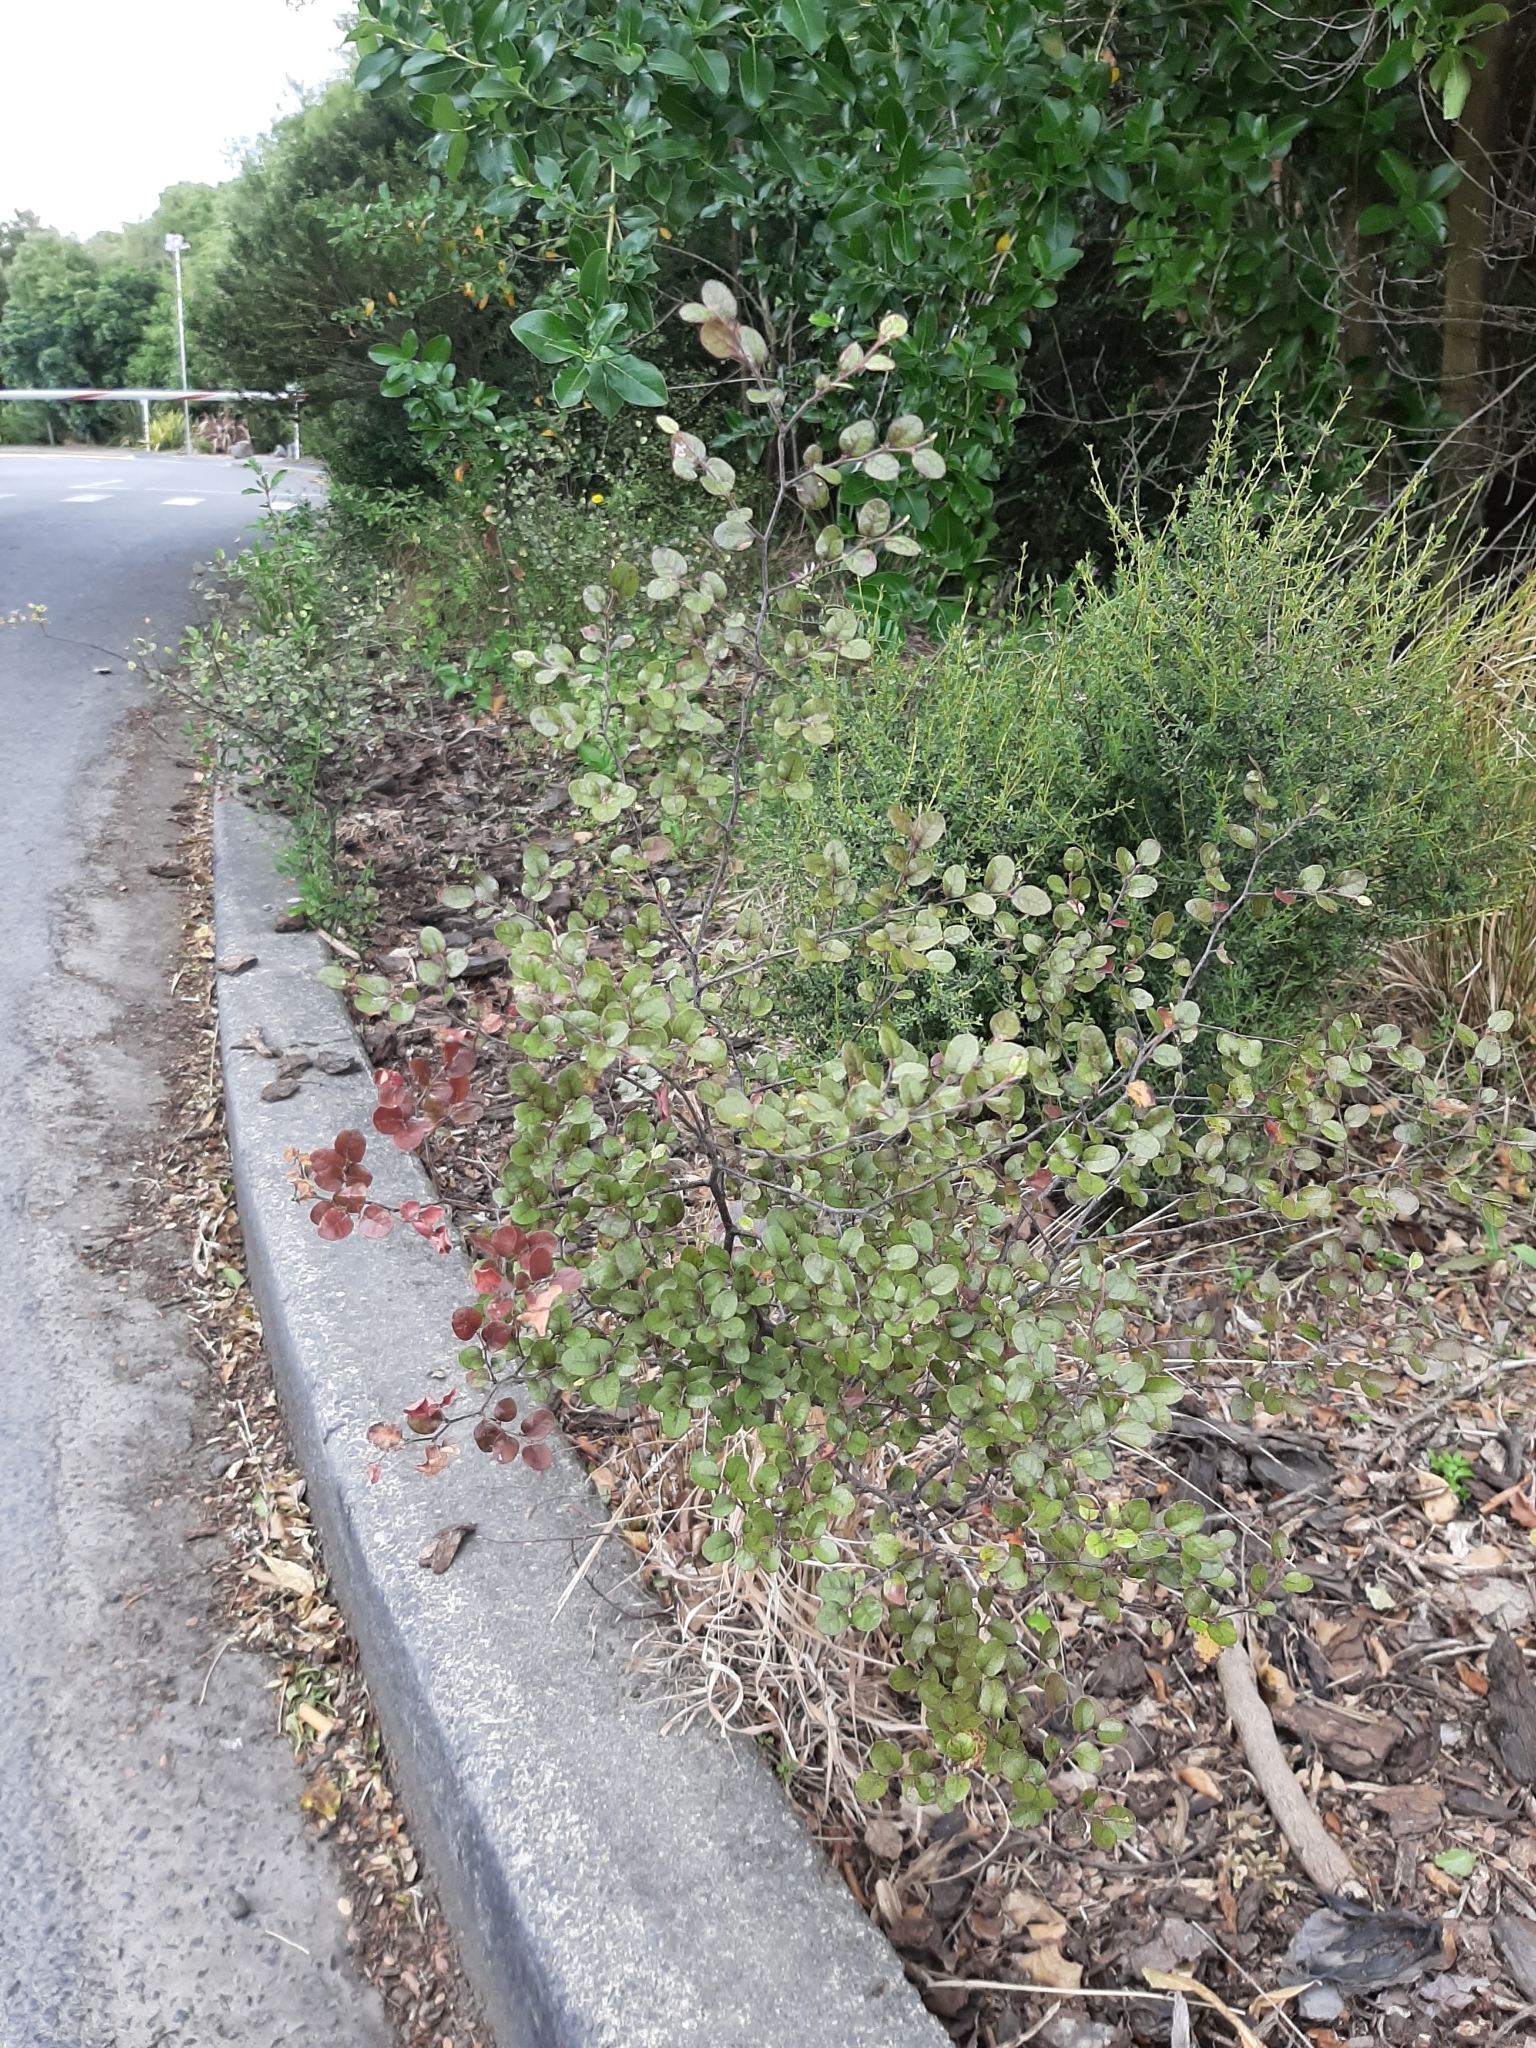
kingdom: Plantae
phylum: Tracheophyta
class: Magnoliopsida
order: Fagales
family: Nothofagaceae
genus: Nothofagus
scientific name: Nothofagus cliffortioides
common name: Mountain beech
